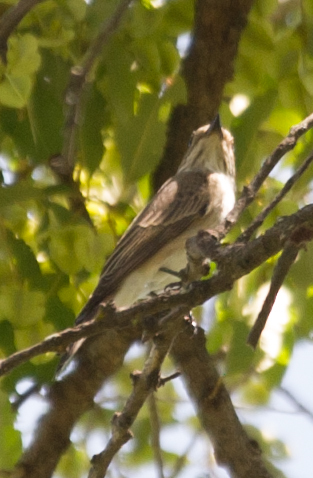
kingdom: Animalia
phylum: Chordata
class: Aves
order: Passeriformes
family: Muscicapidae
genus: Muscicapa
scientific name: Muscicapa striata
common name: Spotted flycatcher
